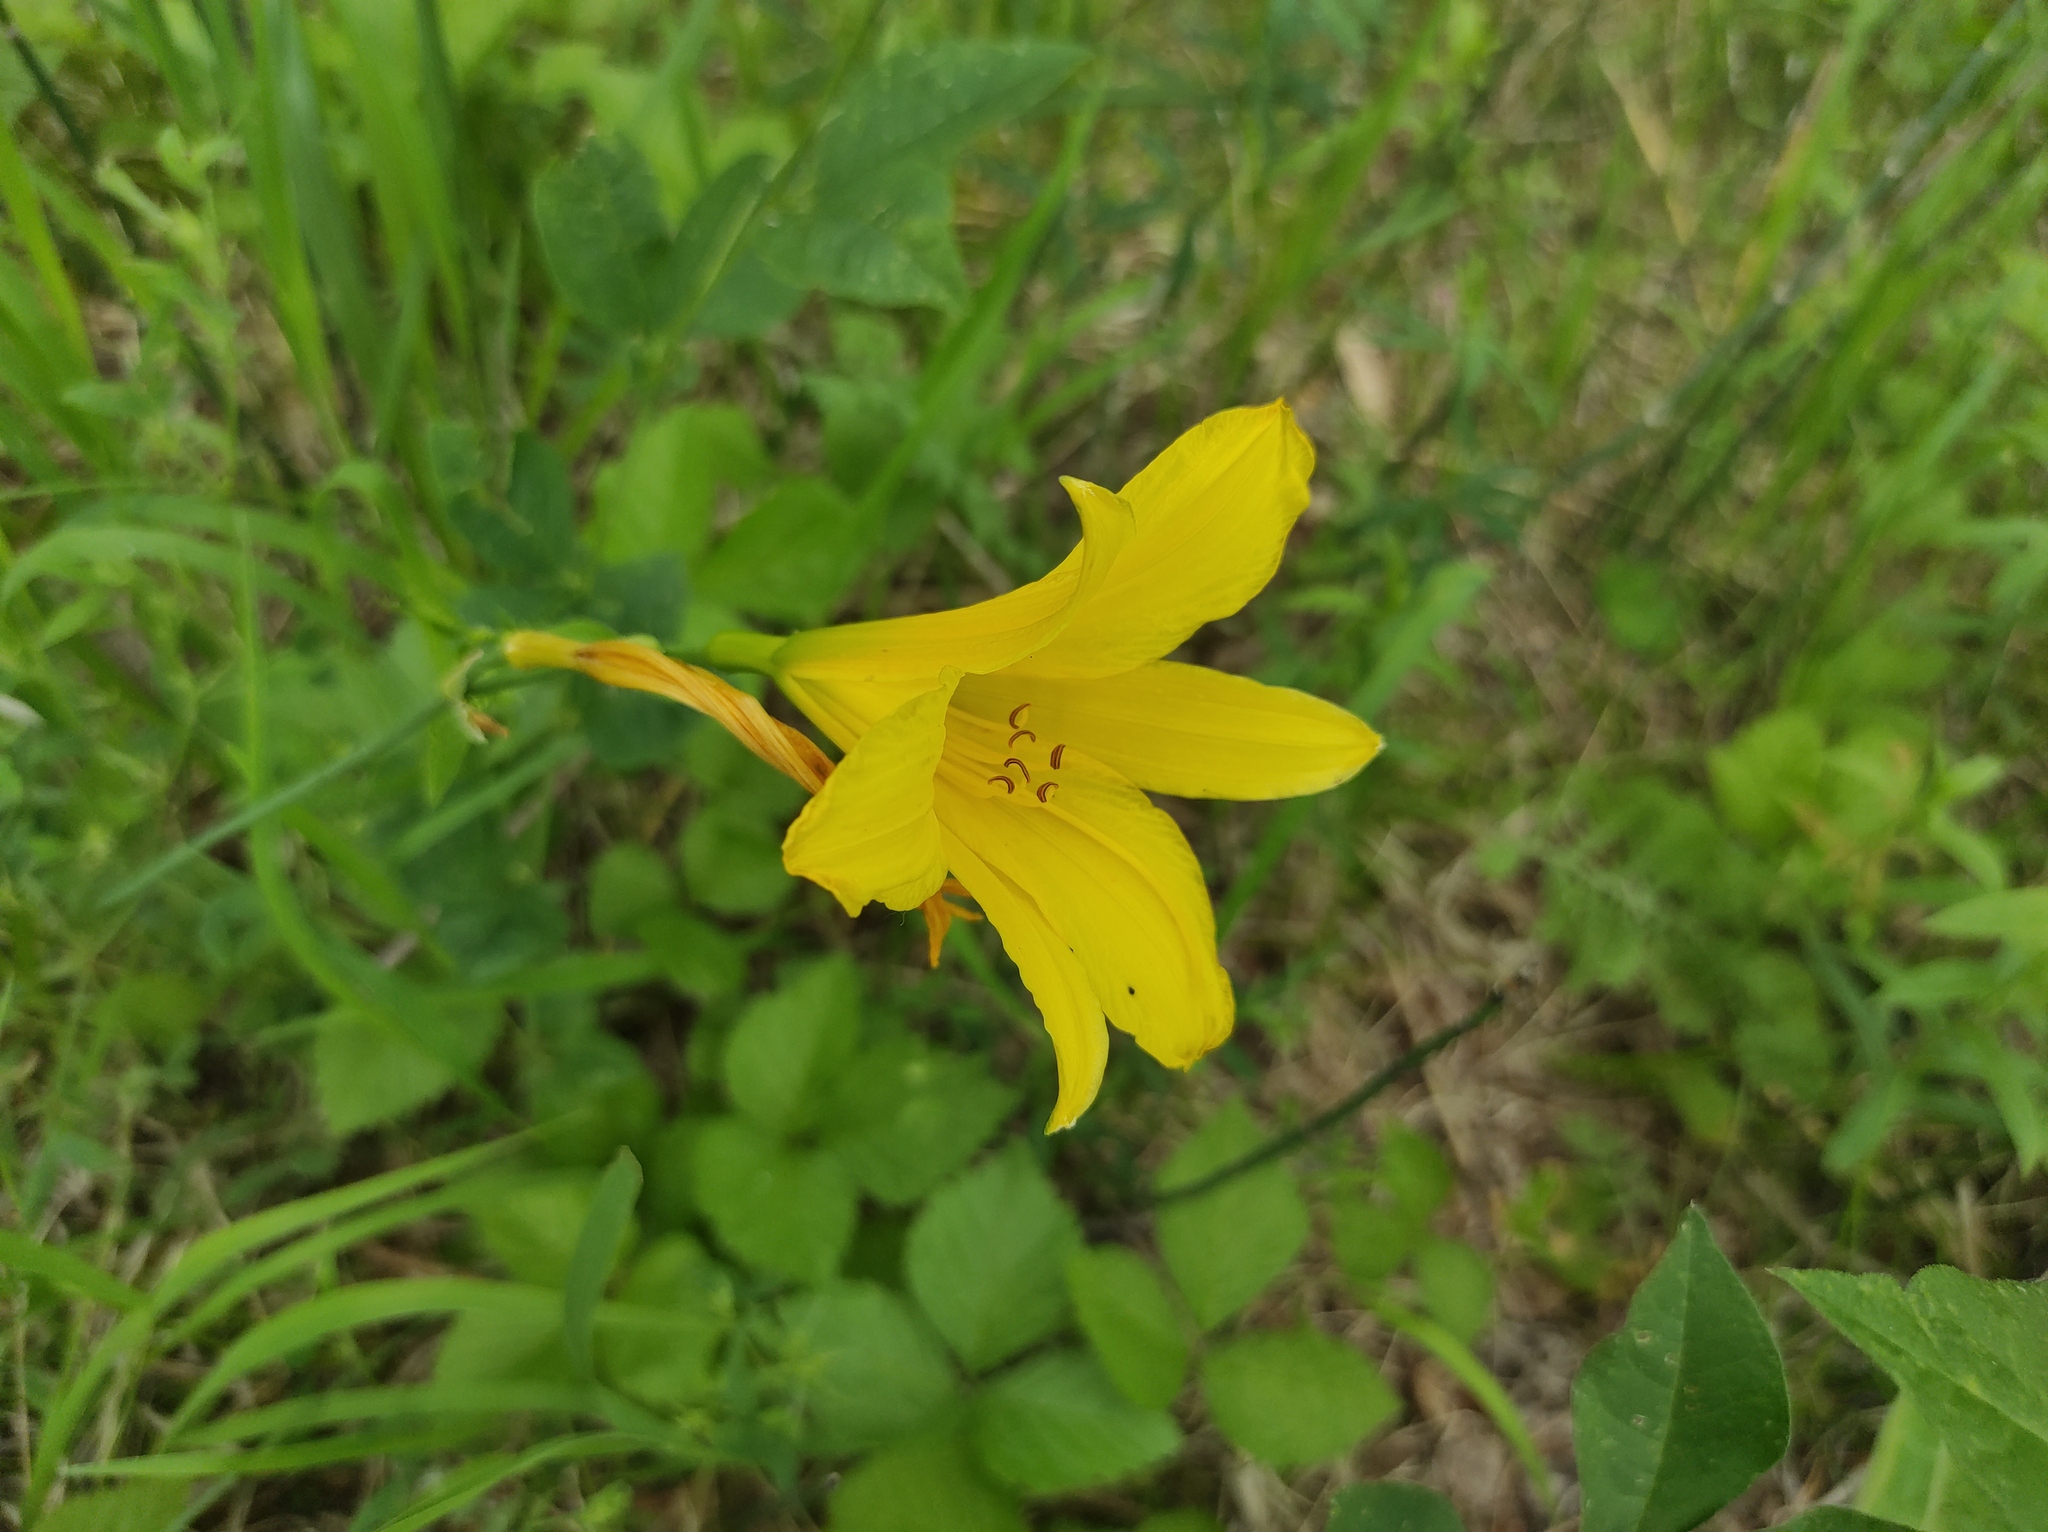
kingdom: Plantae
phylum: Tracheophyta
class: Liliopsida
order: Asparagales
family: Asphodelaceae
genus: Hemerocallis
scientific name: Hemerocallis minor
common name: Small daylily
